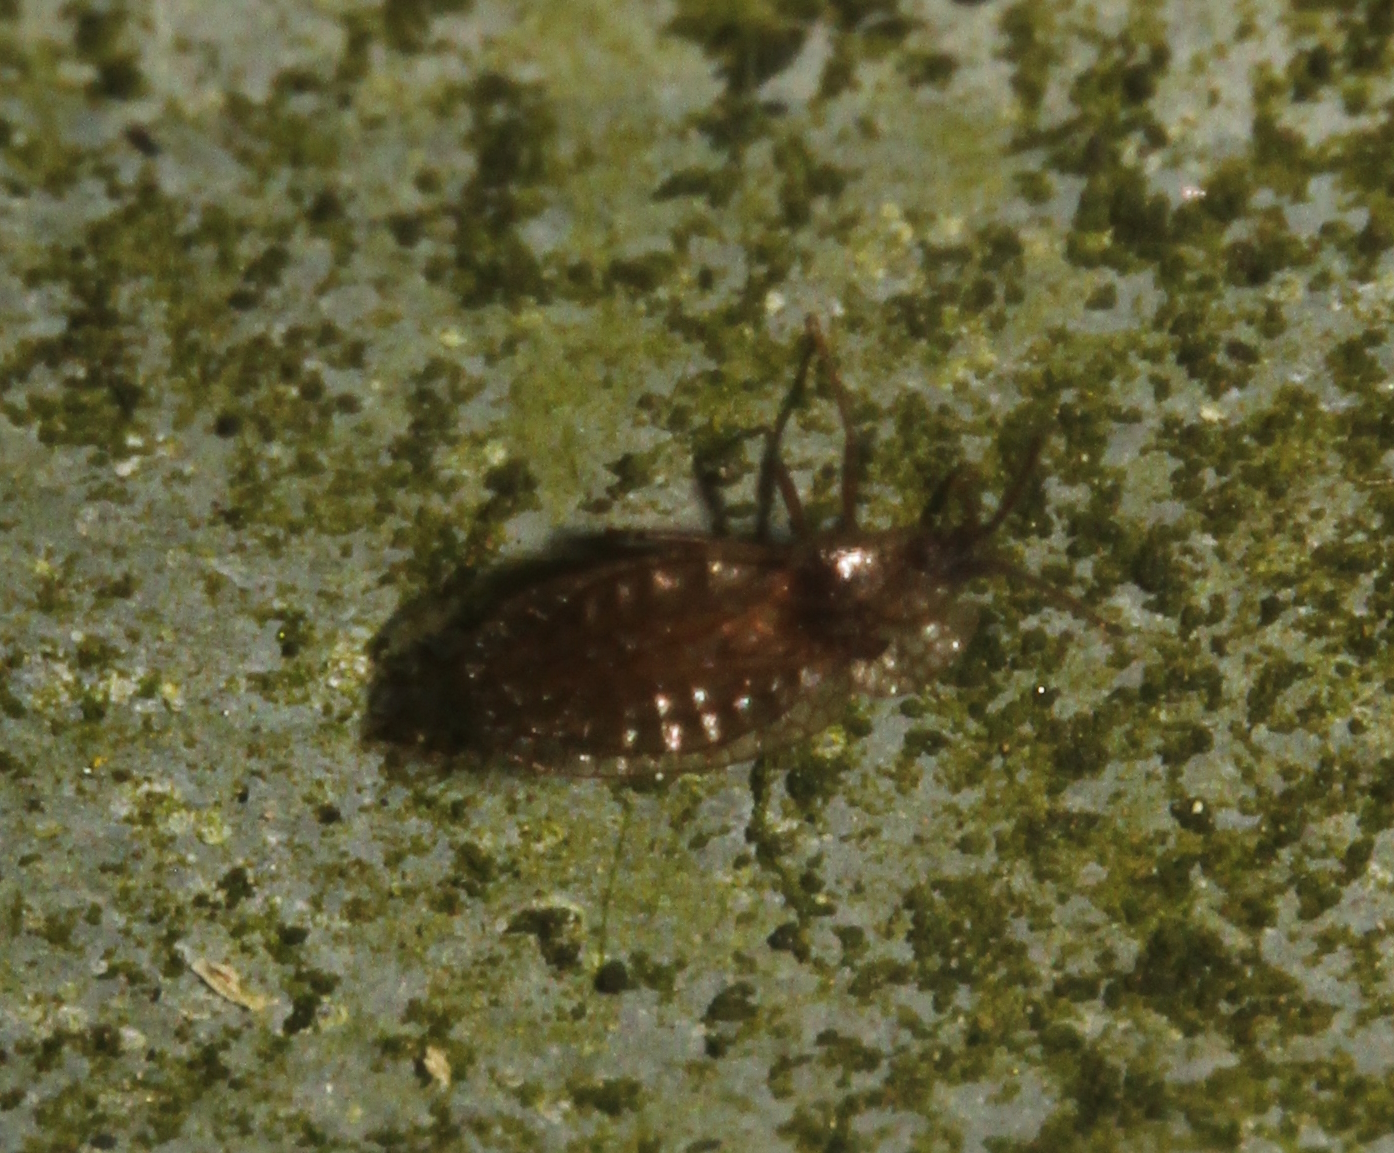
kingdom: Animalia
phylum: Arthropoda
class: Insecta
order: Hemiptera
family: Tingidae
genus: Derephysia
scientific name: Derephysia foliacea
